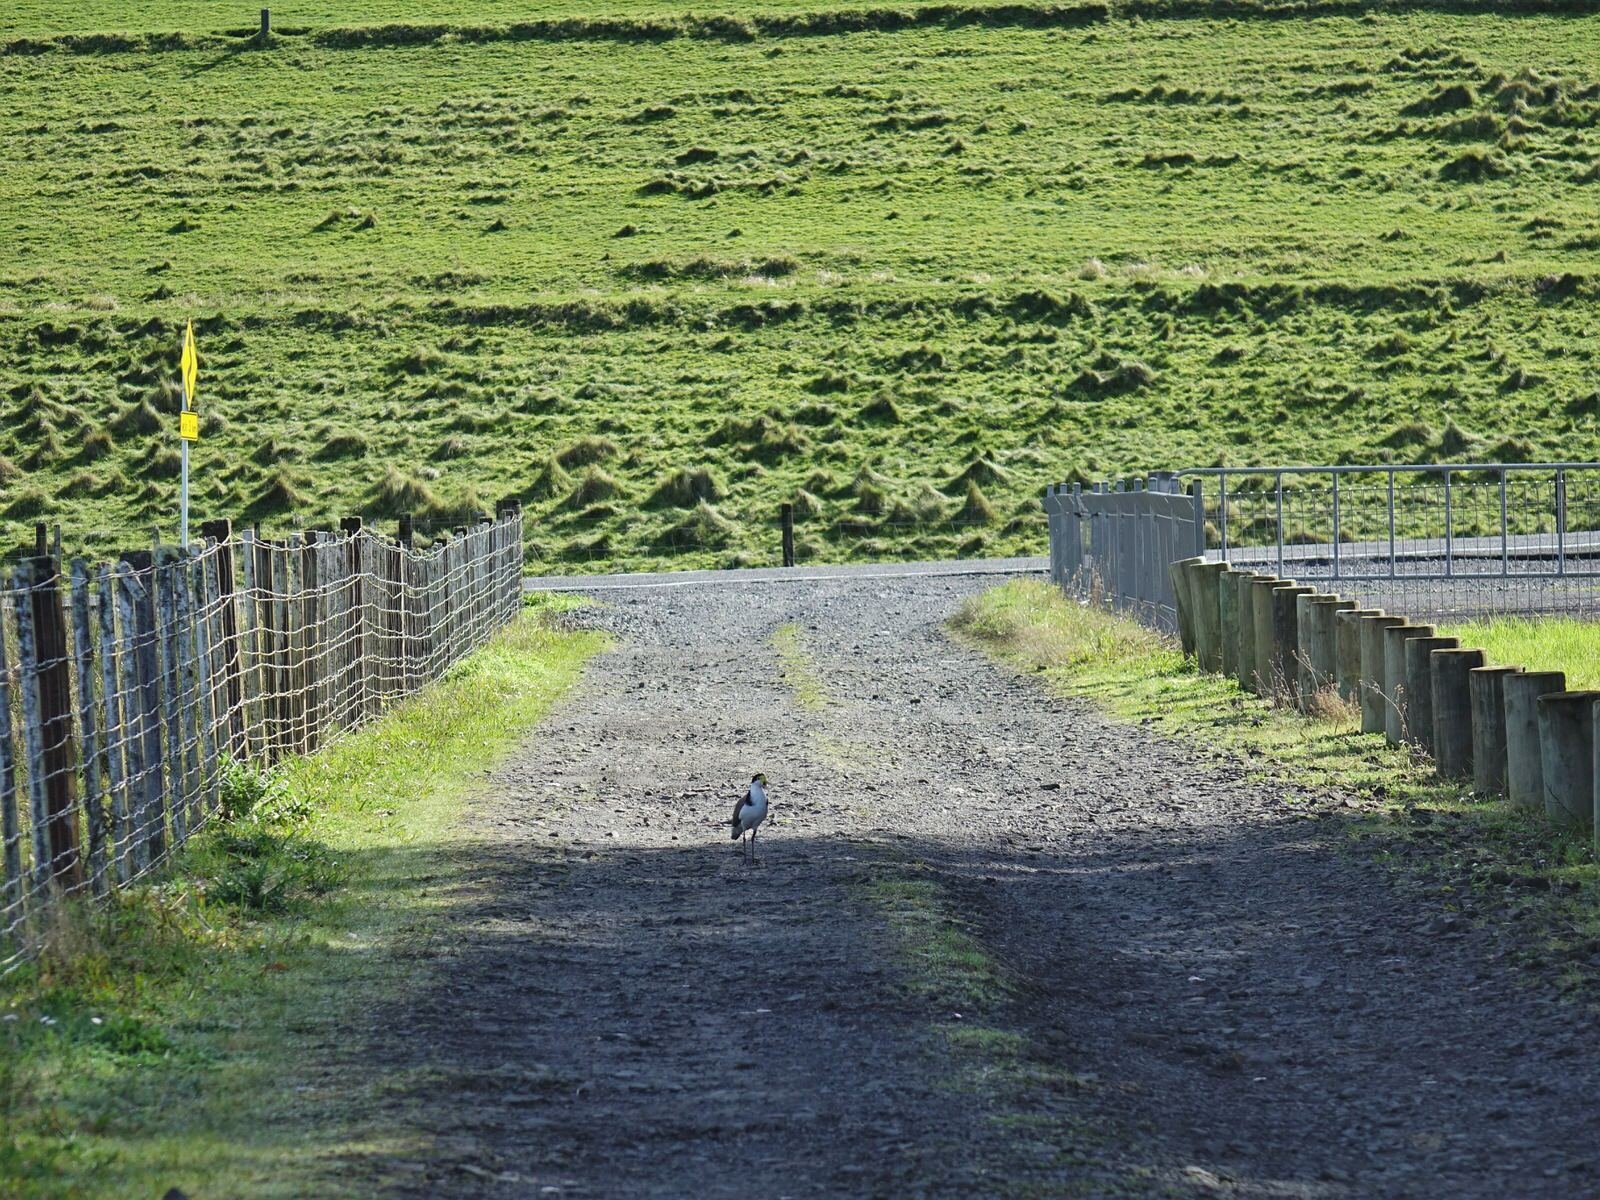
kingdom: Animalia
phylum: Chordata
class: Aves
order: Charadriiformes
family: Charadriidae
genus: Vanellus
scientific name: Vanellus miles
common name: Masked lapwing
